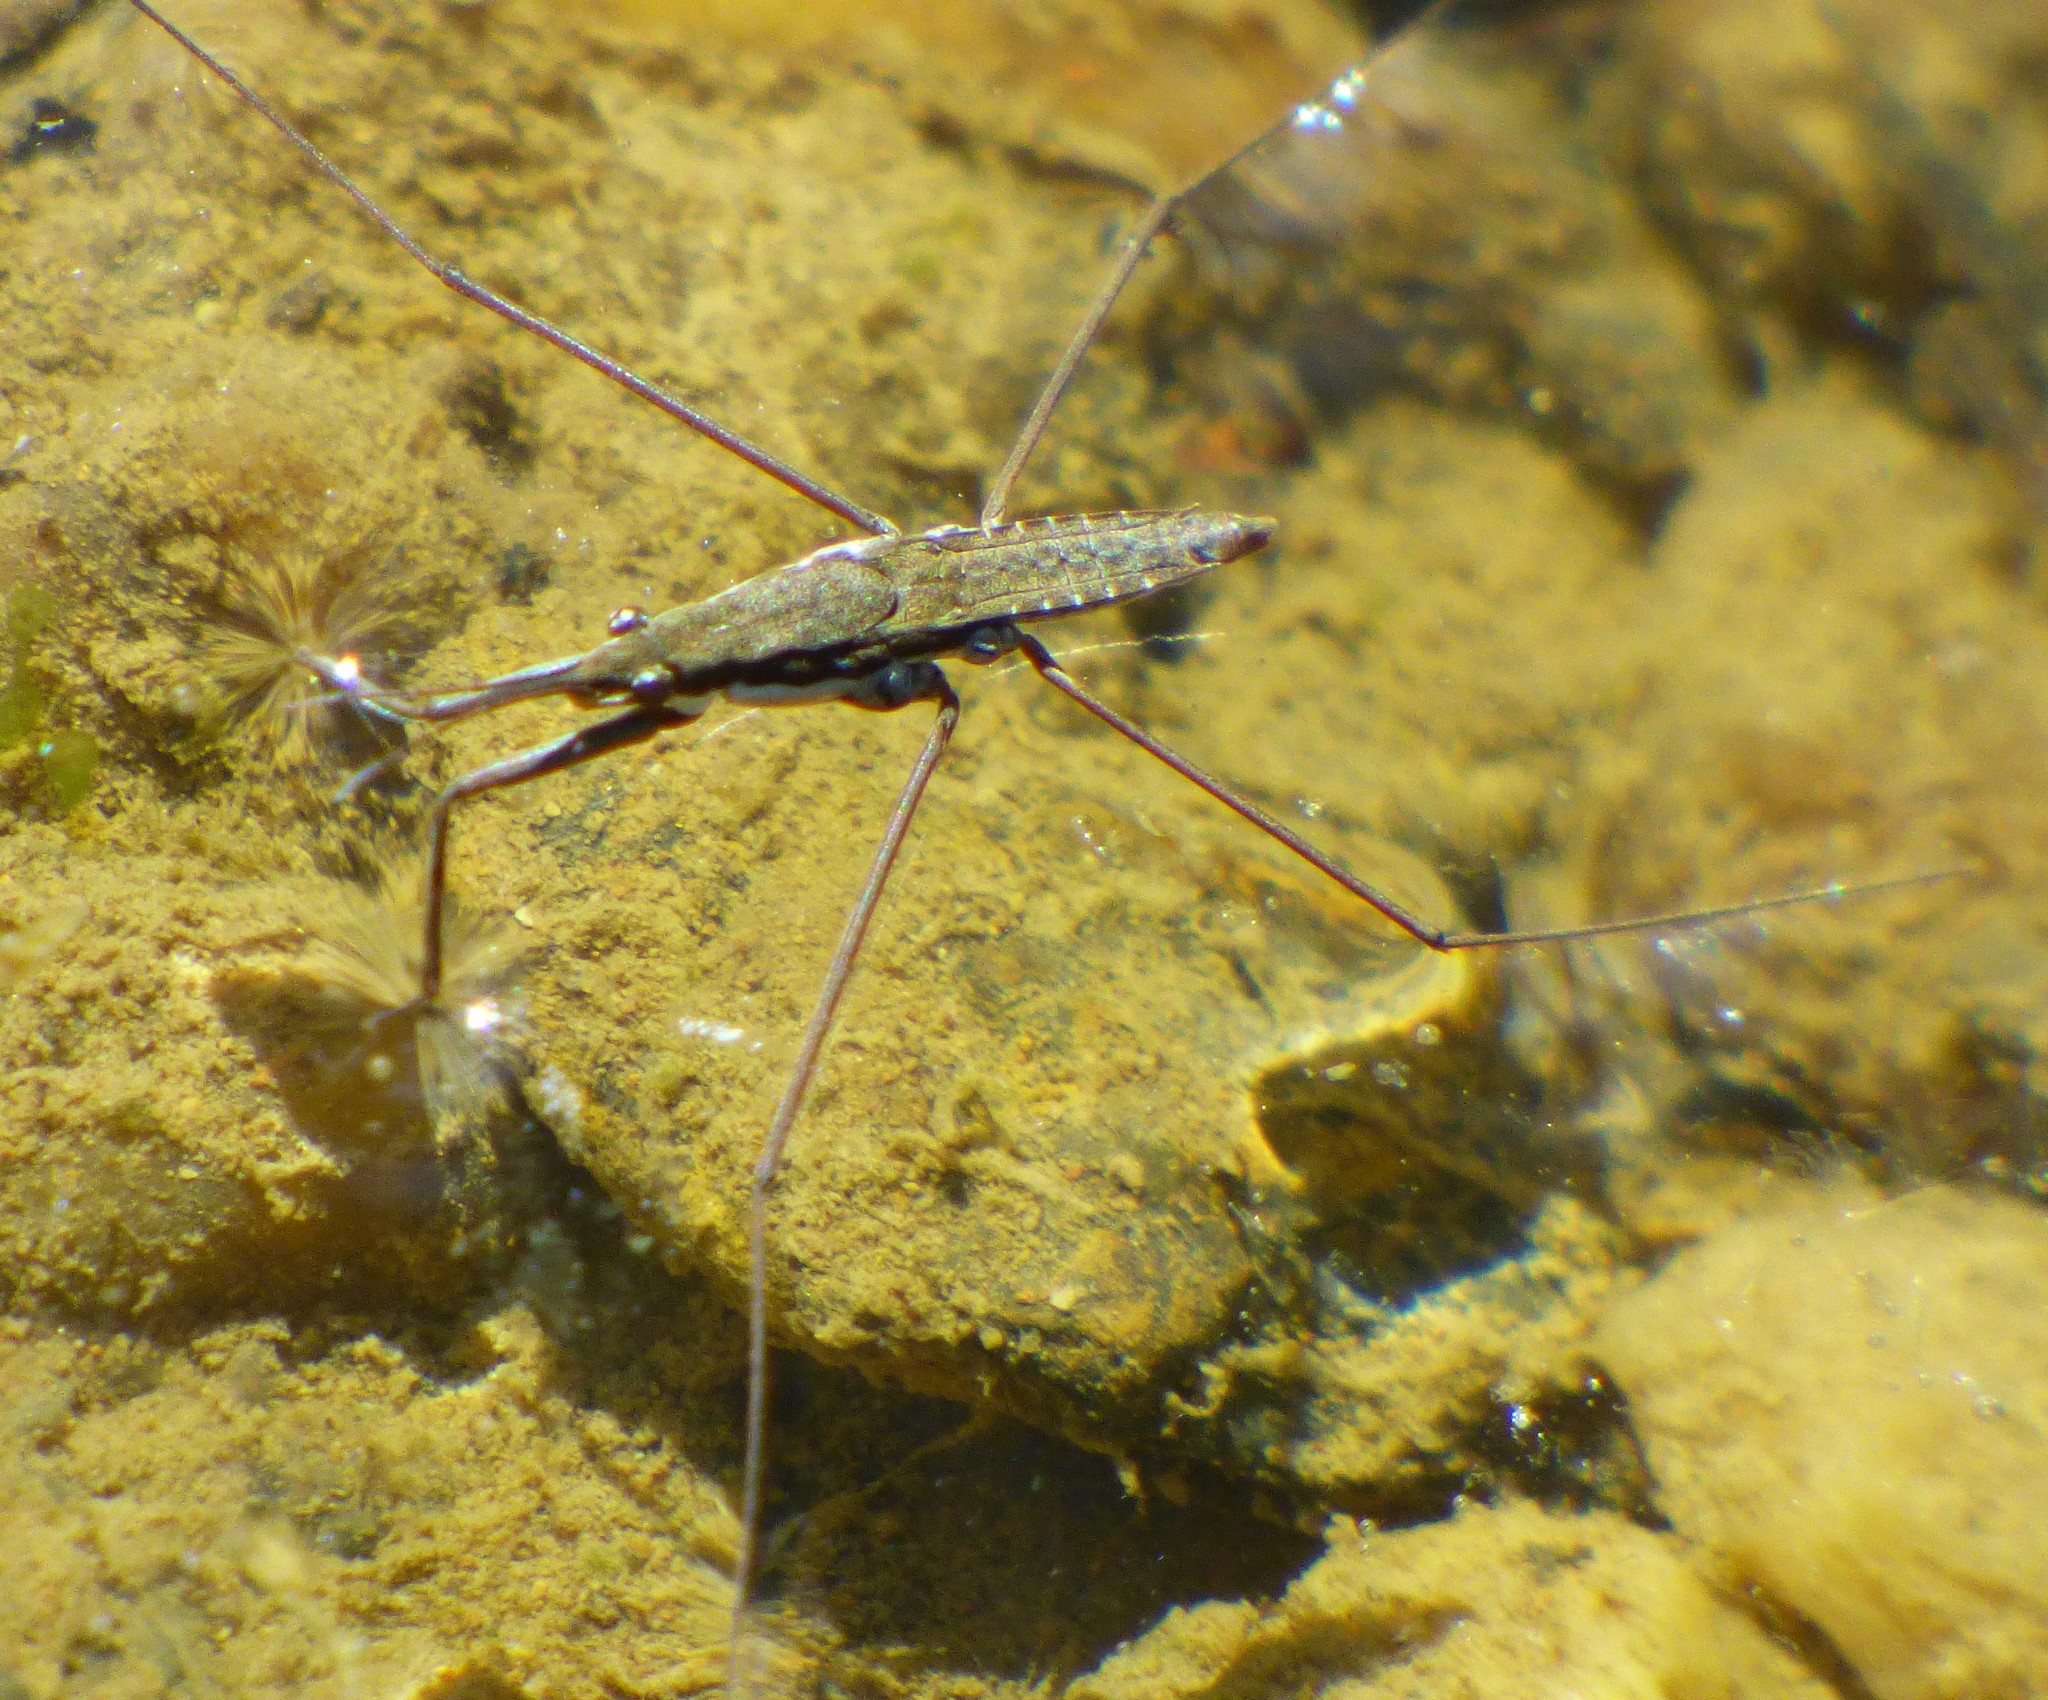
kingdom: Animalia
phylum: Arthropoda
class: Insecta
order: Hemiptera
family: Gerridae
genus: Aquarius
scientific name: Aquarius
